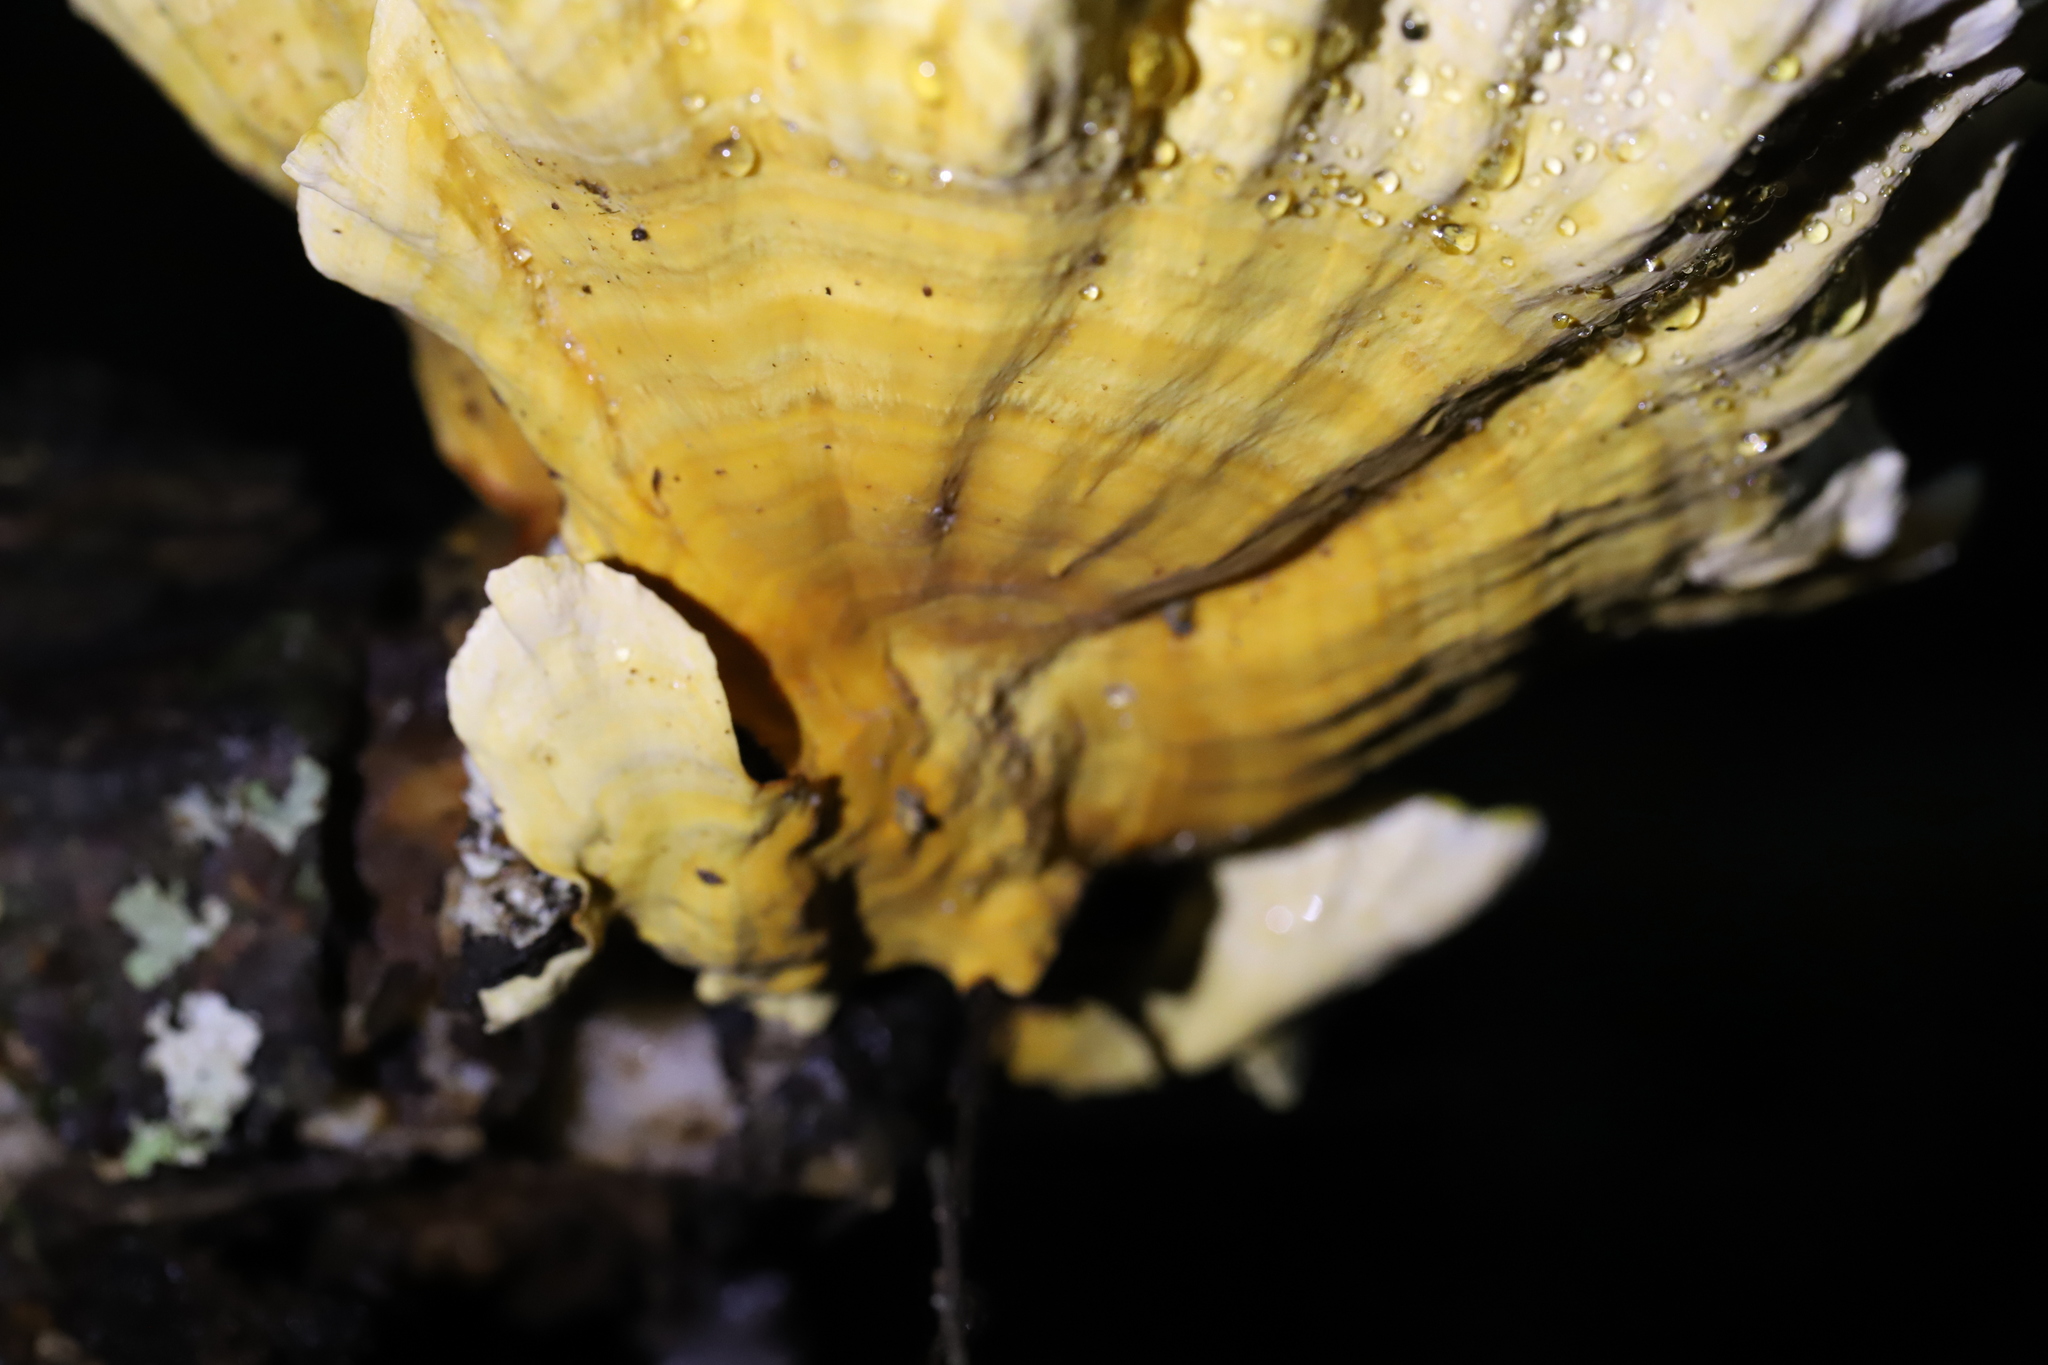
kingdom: Fungi
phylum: Basidiomycota
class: Agaricomycetes
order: Russulales
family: Stereaceae
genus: Stereum
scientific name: Stereum versicolor
